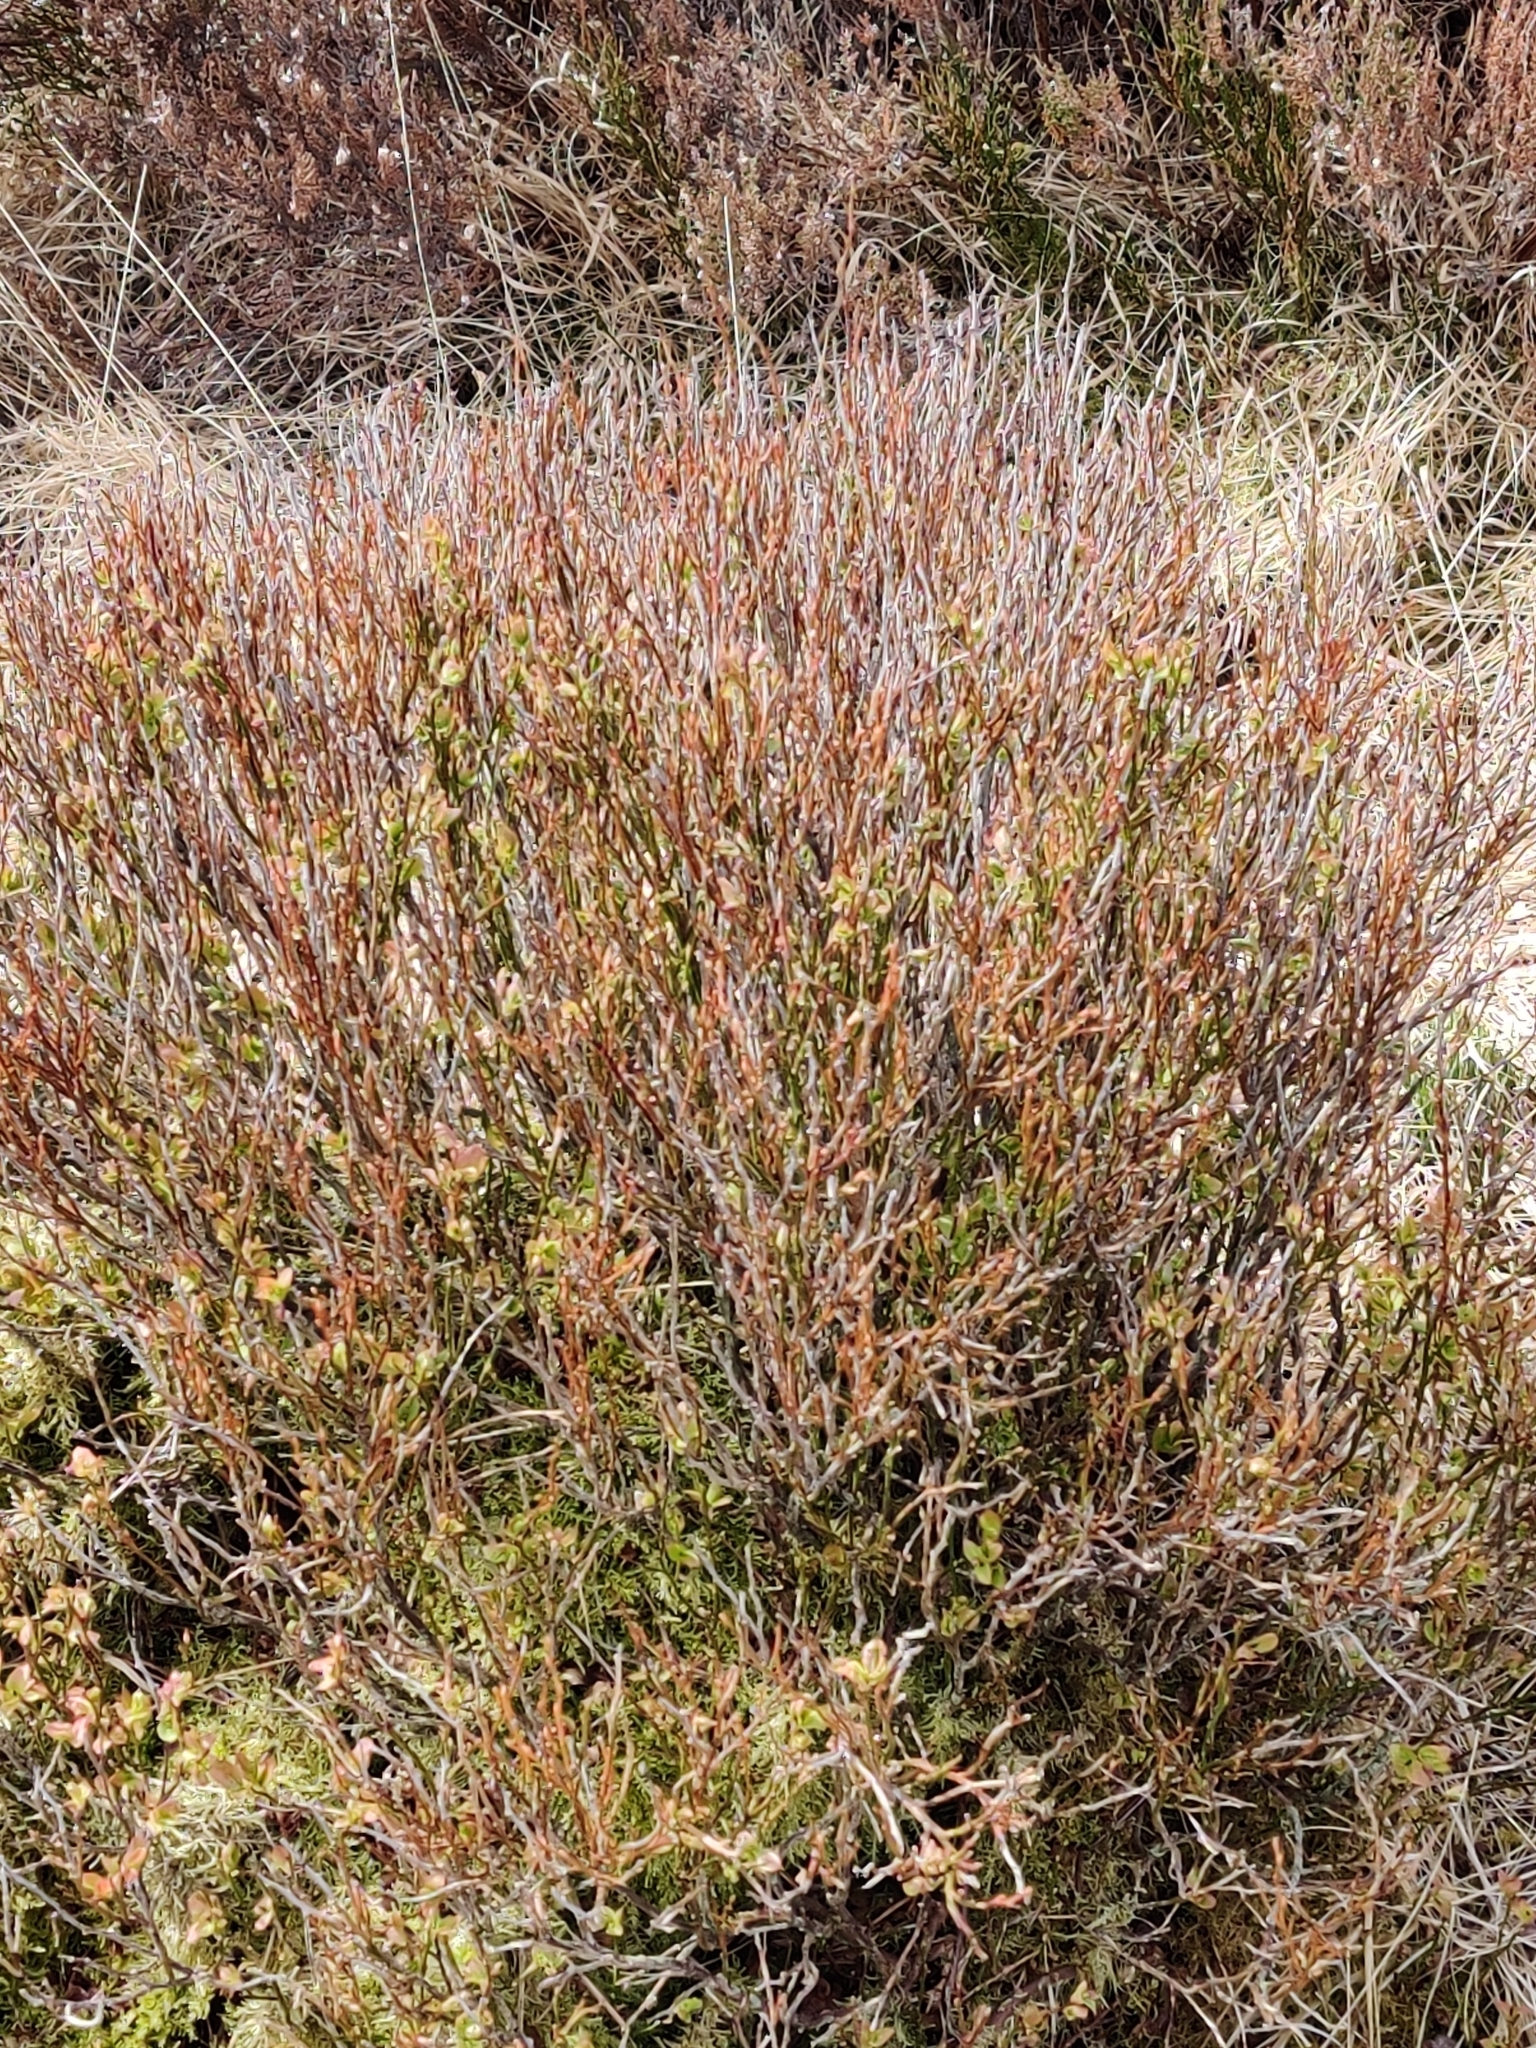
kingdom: Plantae
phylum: Tracheophyta
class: Magnoliopsida
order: Ericales
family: Ericaceae
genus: Vaccinium
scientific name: Vaccinium myrtillus
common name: Bilberry
